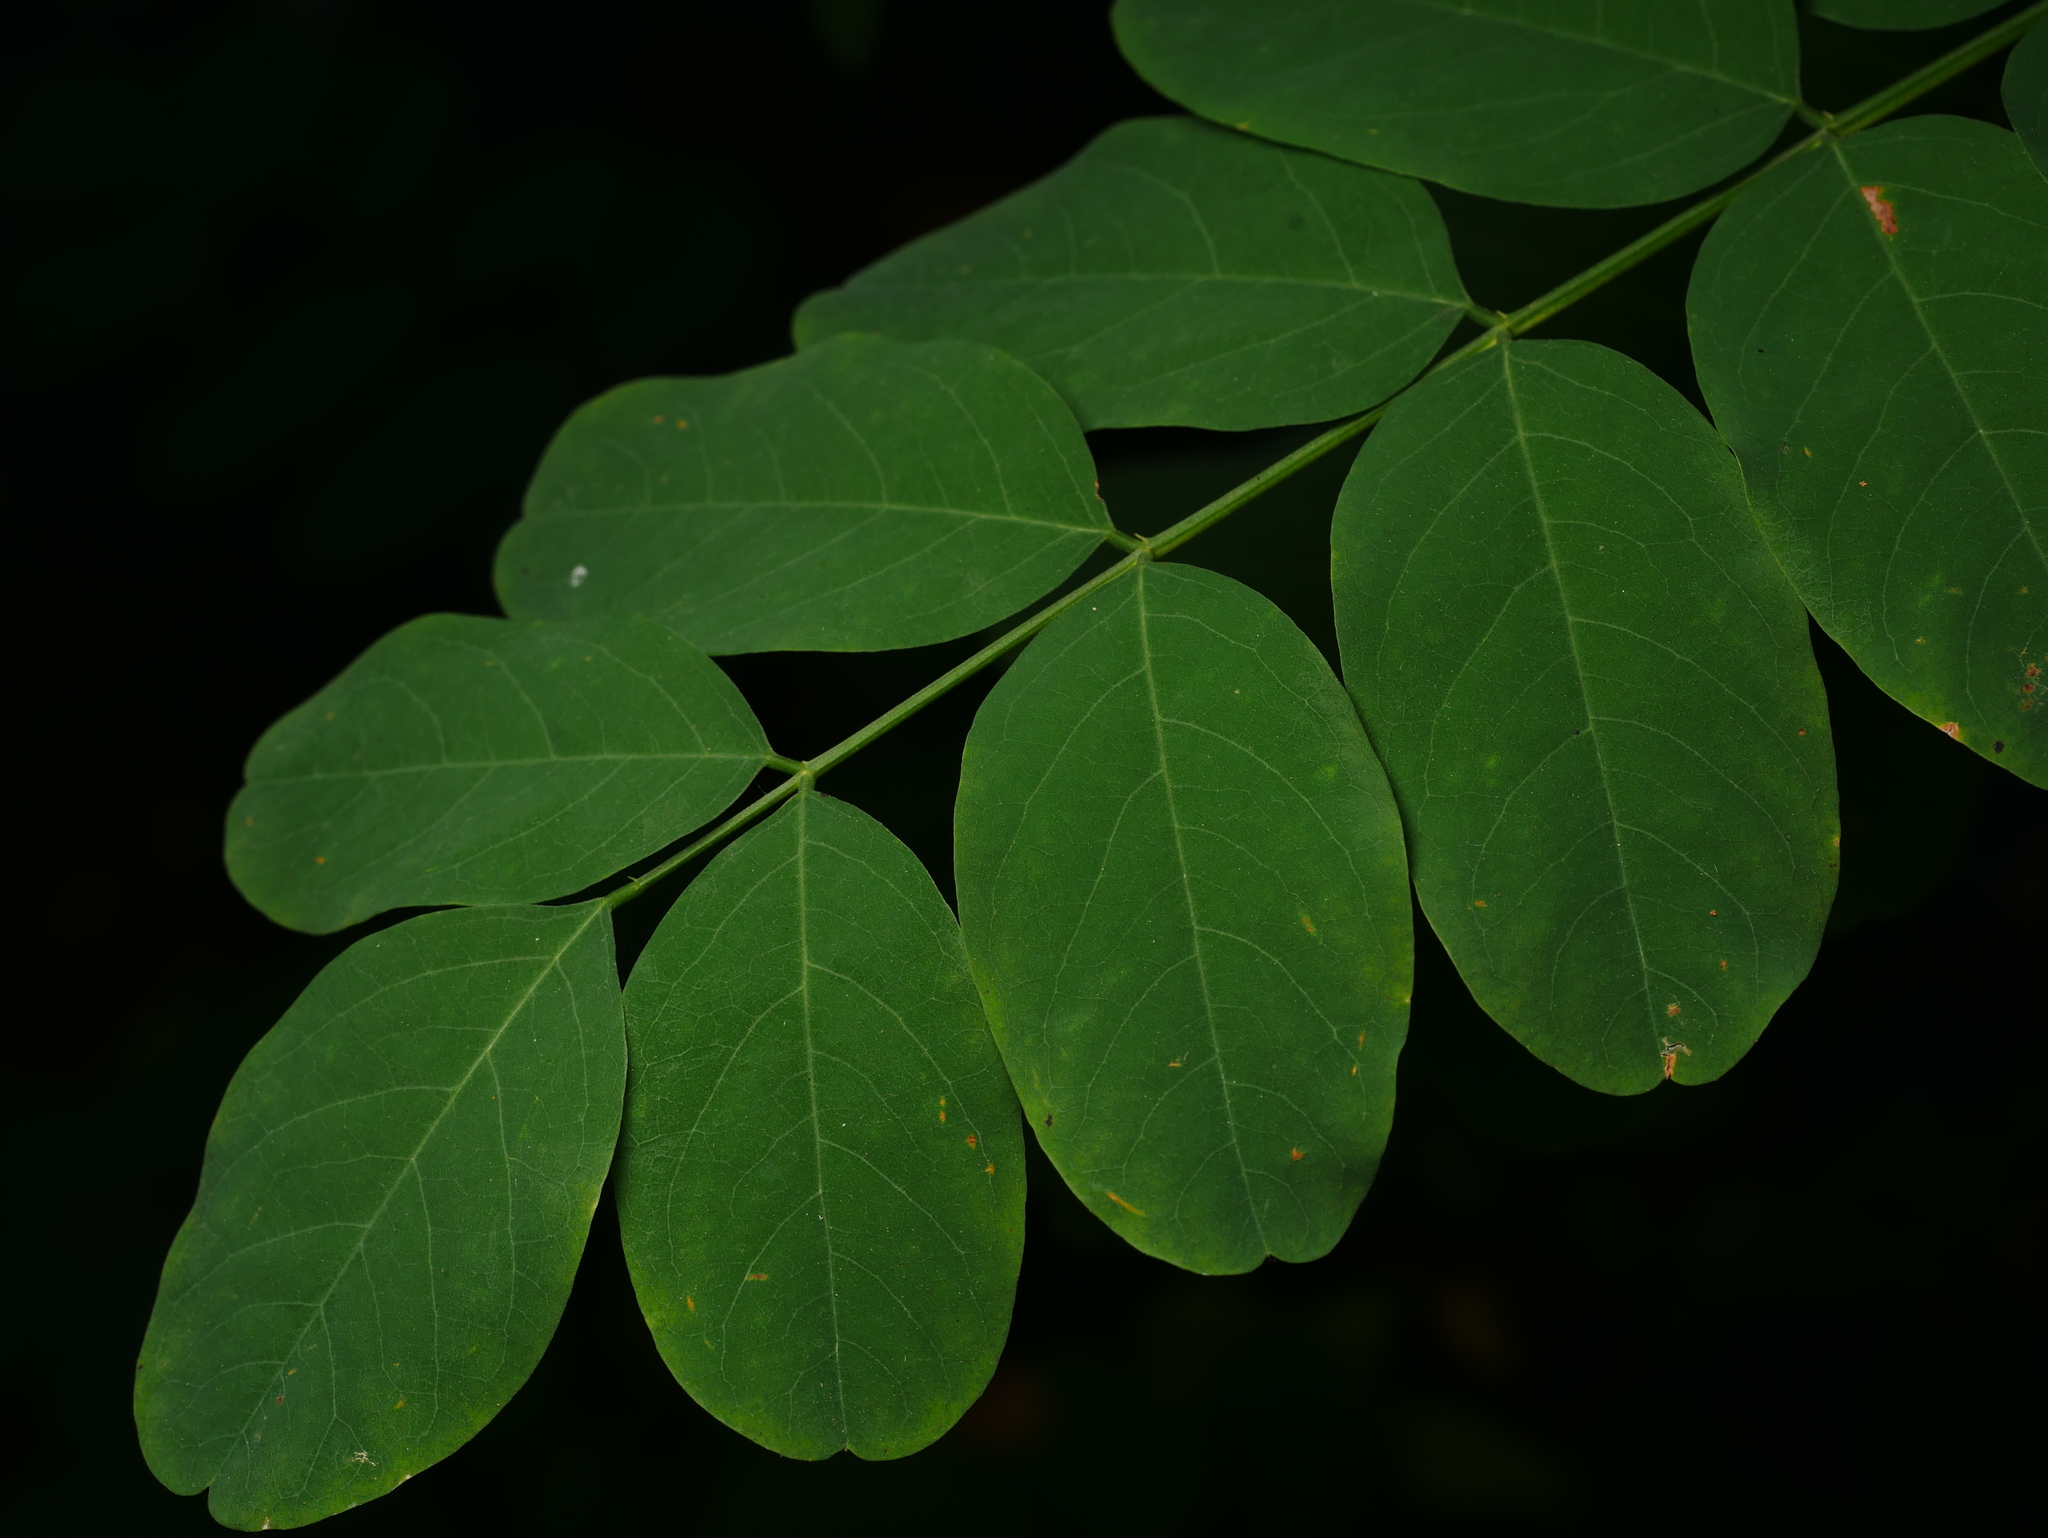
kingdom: Plantae
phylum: Tracheophyta
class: Magnoliopsida
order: Fabales
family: Fabaceae
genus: Robinia
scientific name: Robinia pseudoacacia
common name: Black locust
